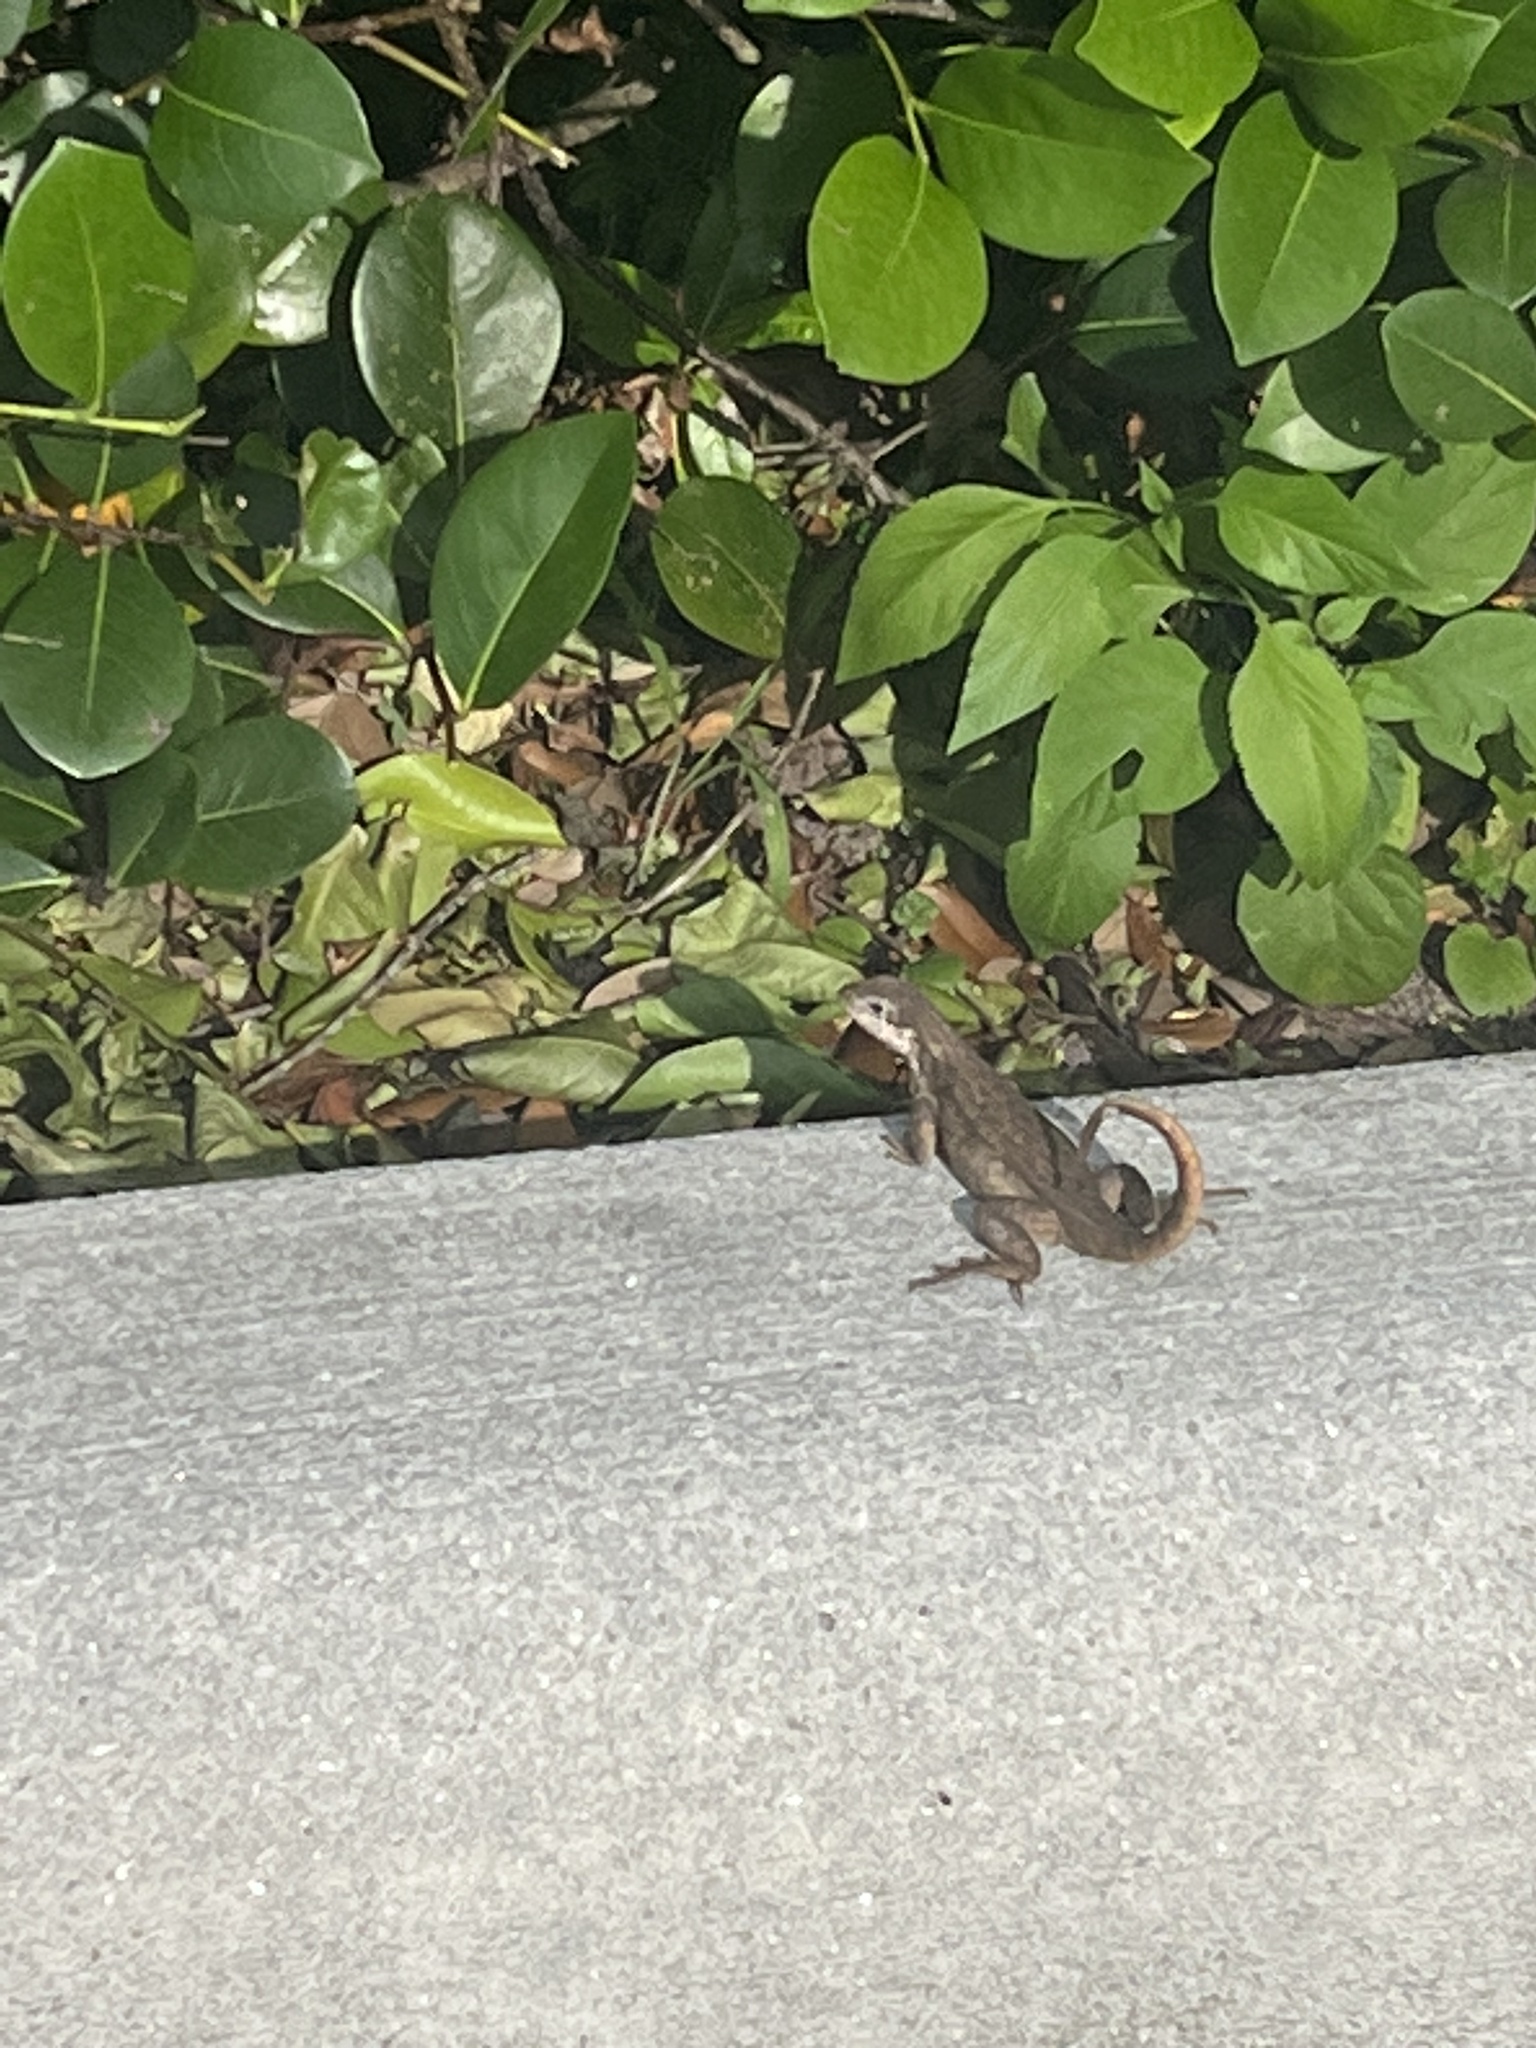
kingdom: Animalia
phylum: Chordata
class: Squamata
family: Leiocephalidae
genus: Leiocephalus
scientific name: Leiocephalus carinatus
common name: Northern curly-tailed lizard
